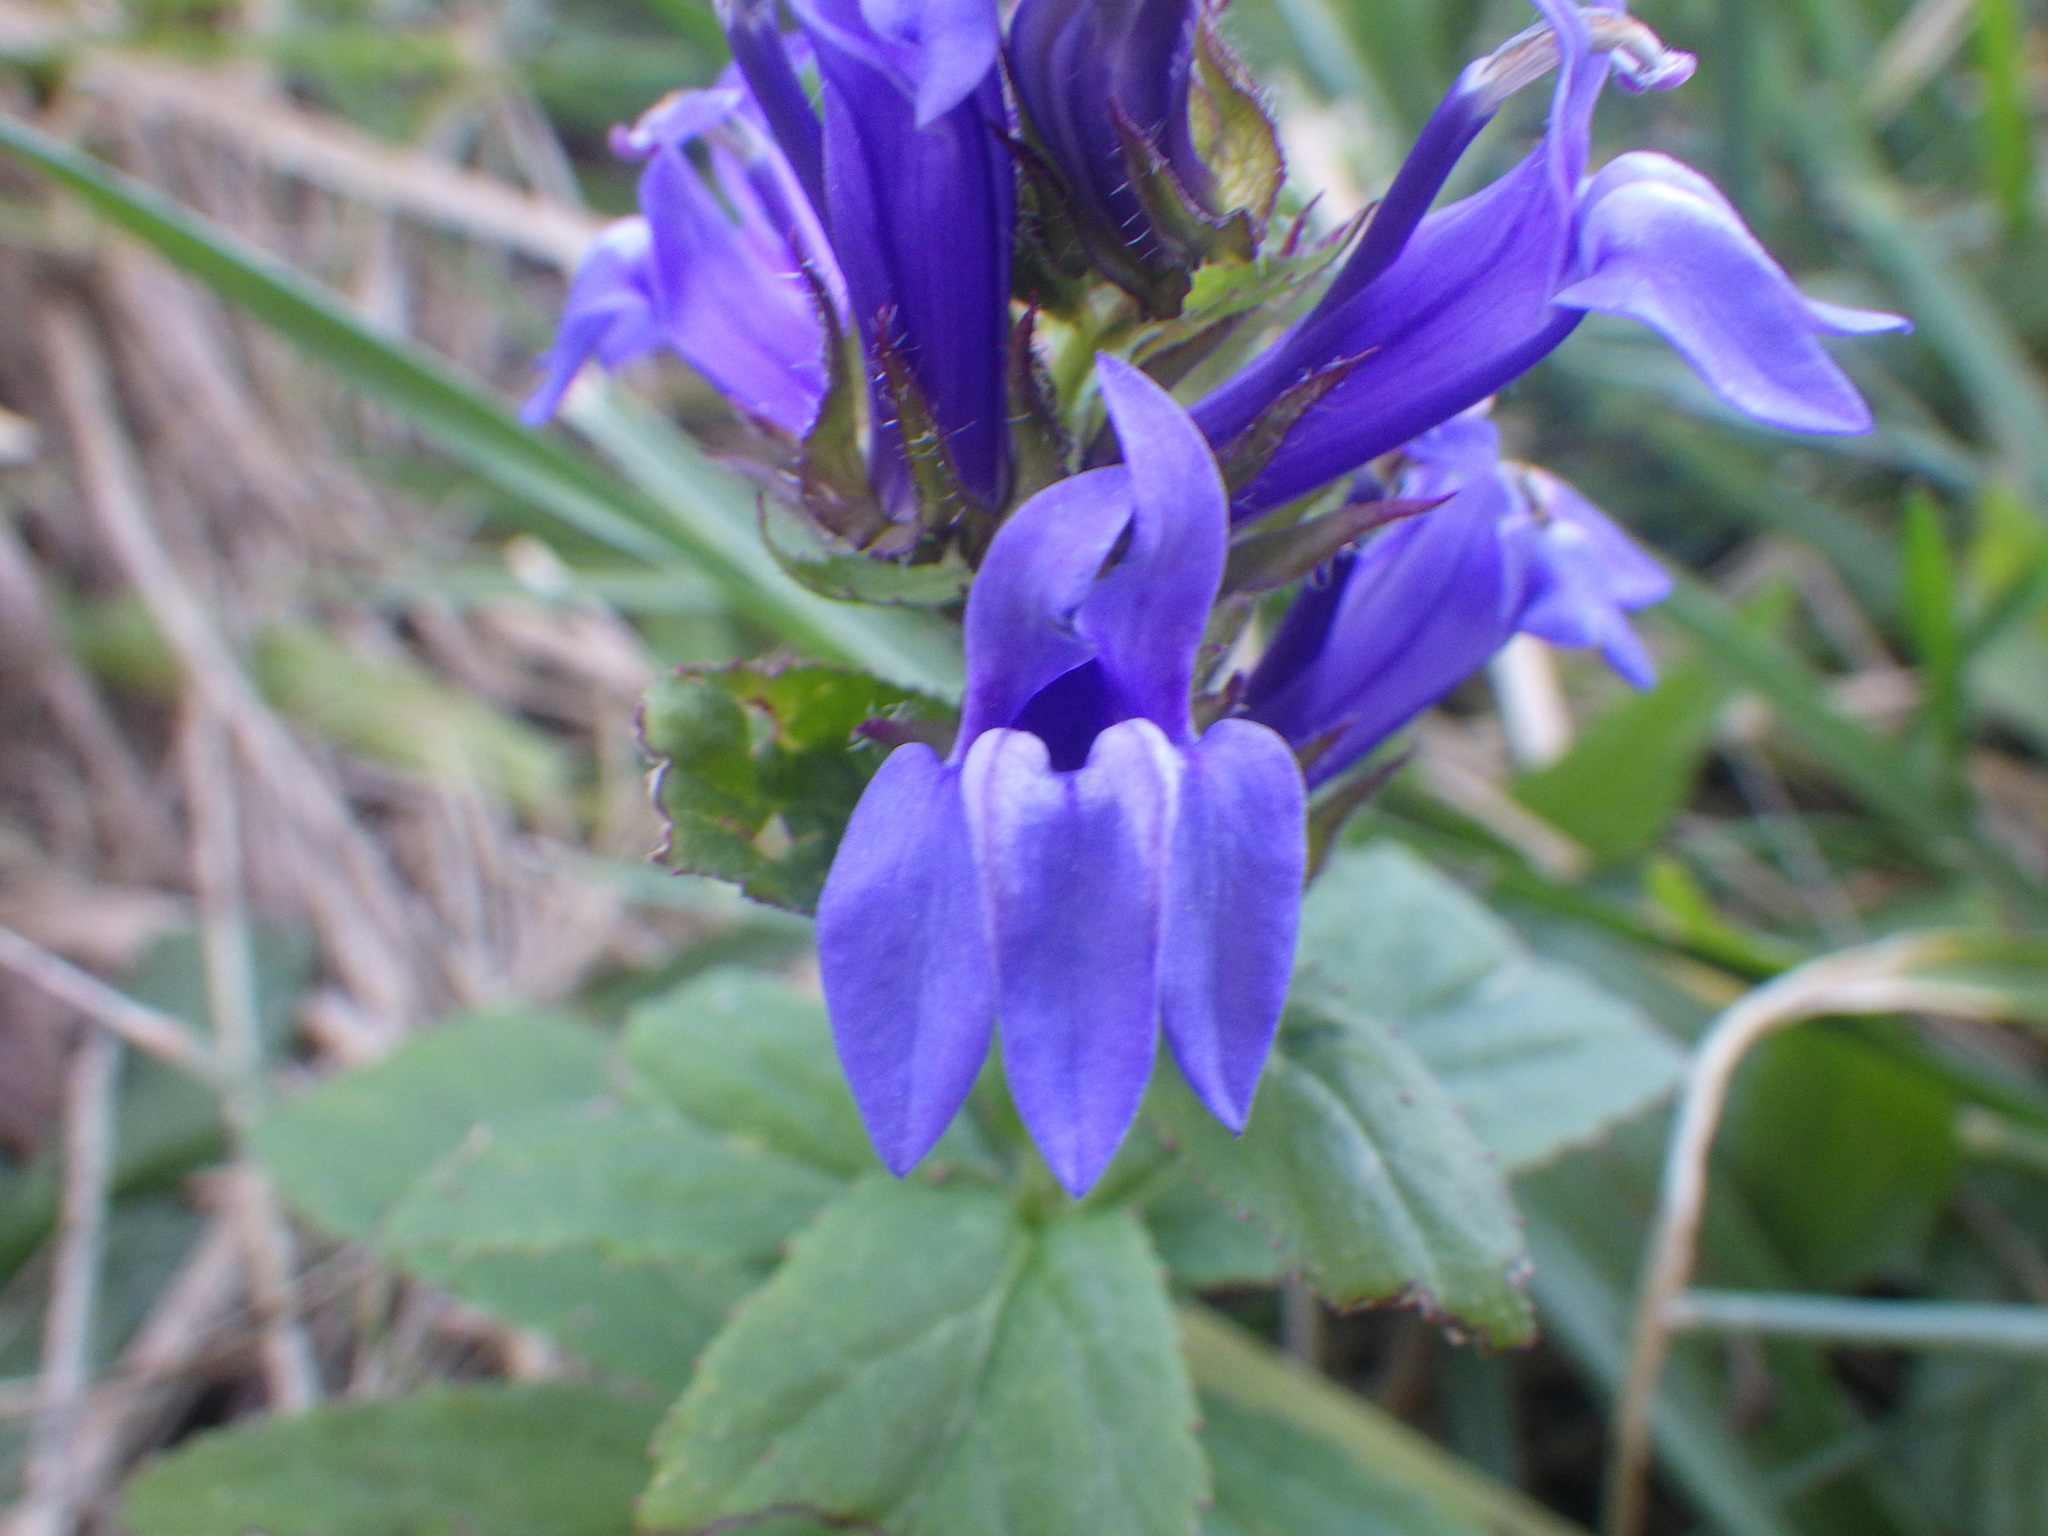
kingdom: Plantae
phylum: Tracheophyta
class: Magnoliopsida
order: Asterales
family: Campanulaceae
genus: Lobelia
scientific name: Lobelia siphilitica
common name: Great lobelia
